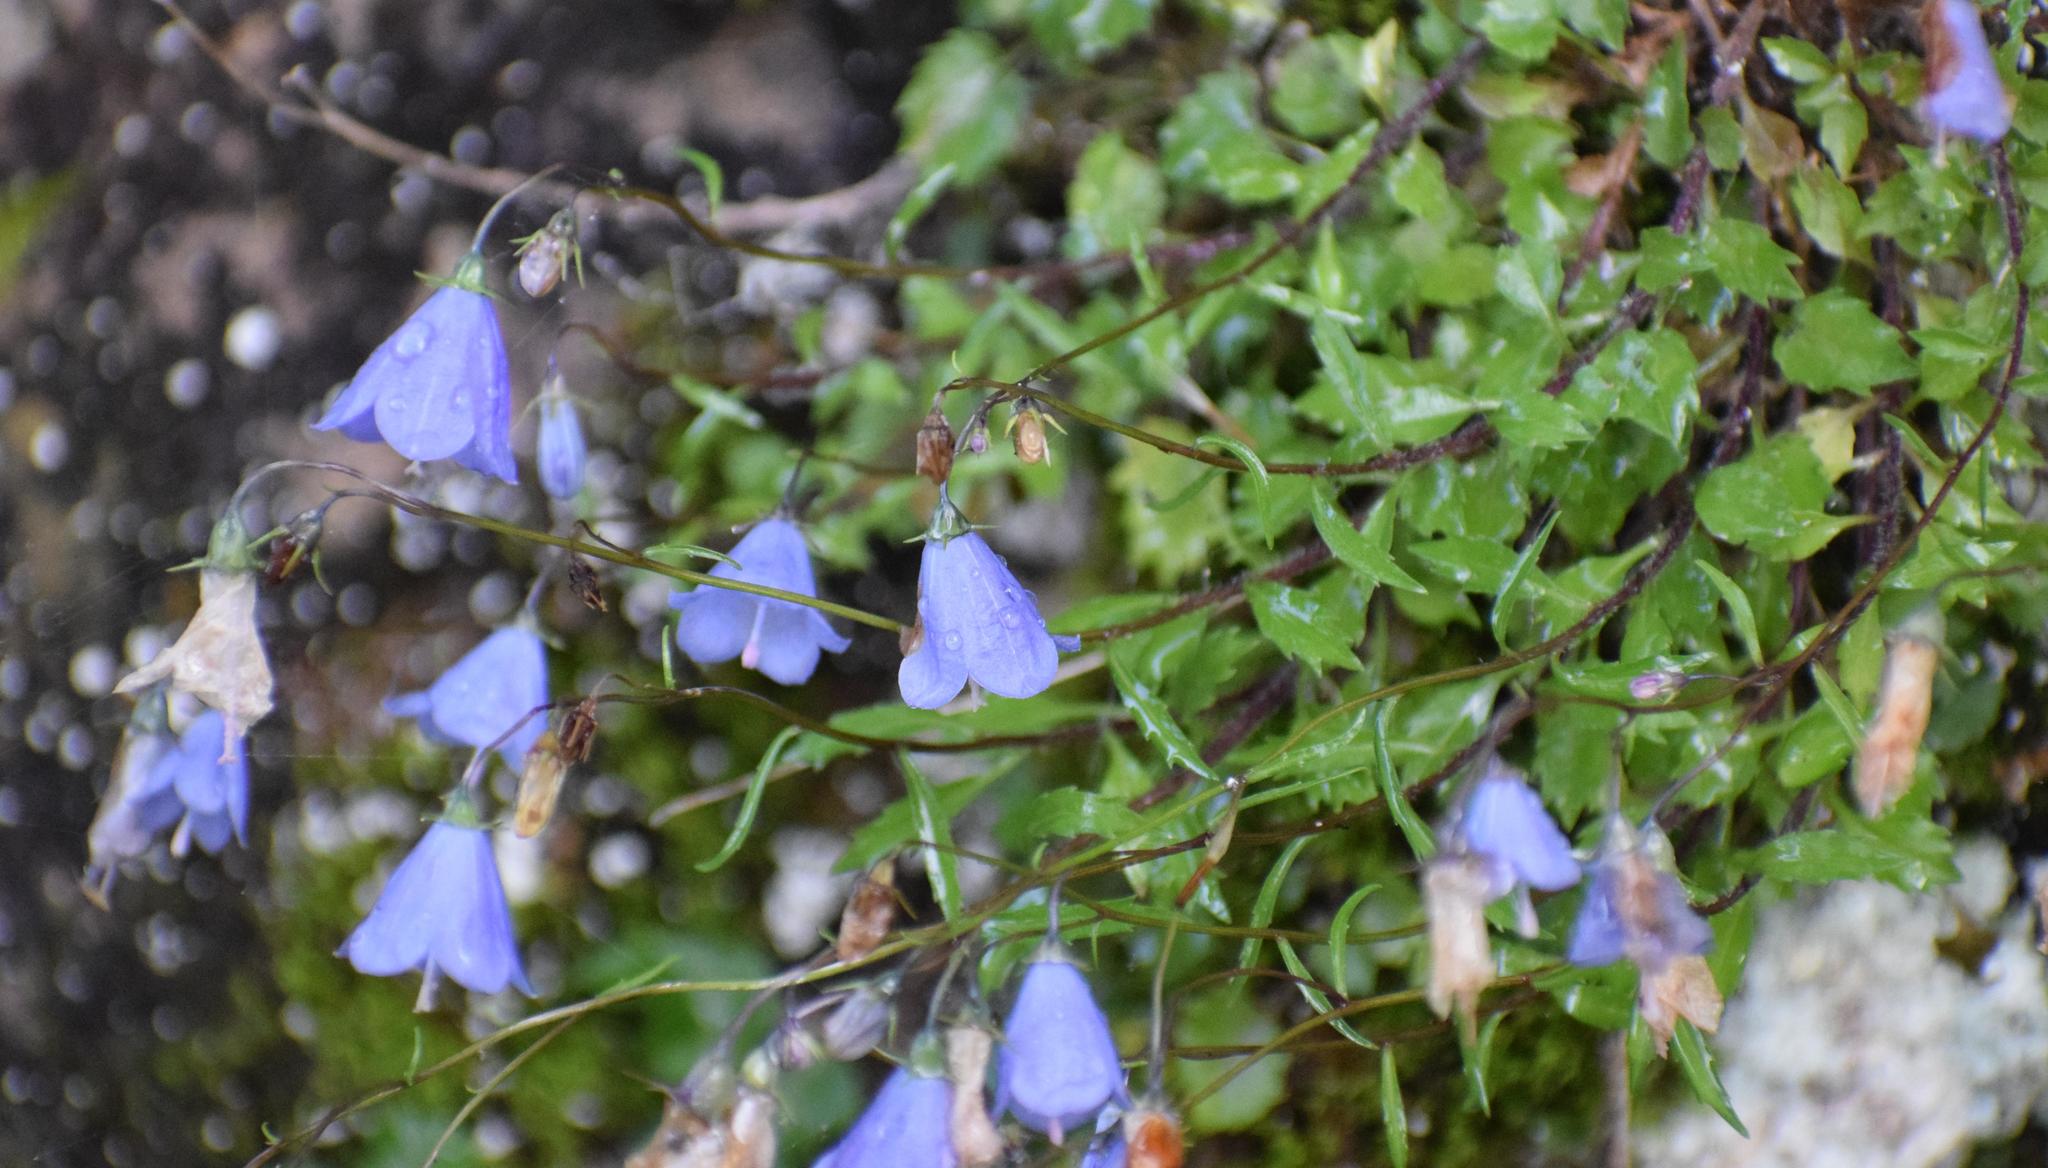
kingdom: Plantae
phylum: Tracheophyta
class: Magnoliopsida
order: Asterales
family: Campanulaceae
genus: Campanula
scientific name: Campanula cochleariifolia
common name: Fairies'-thimbles
